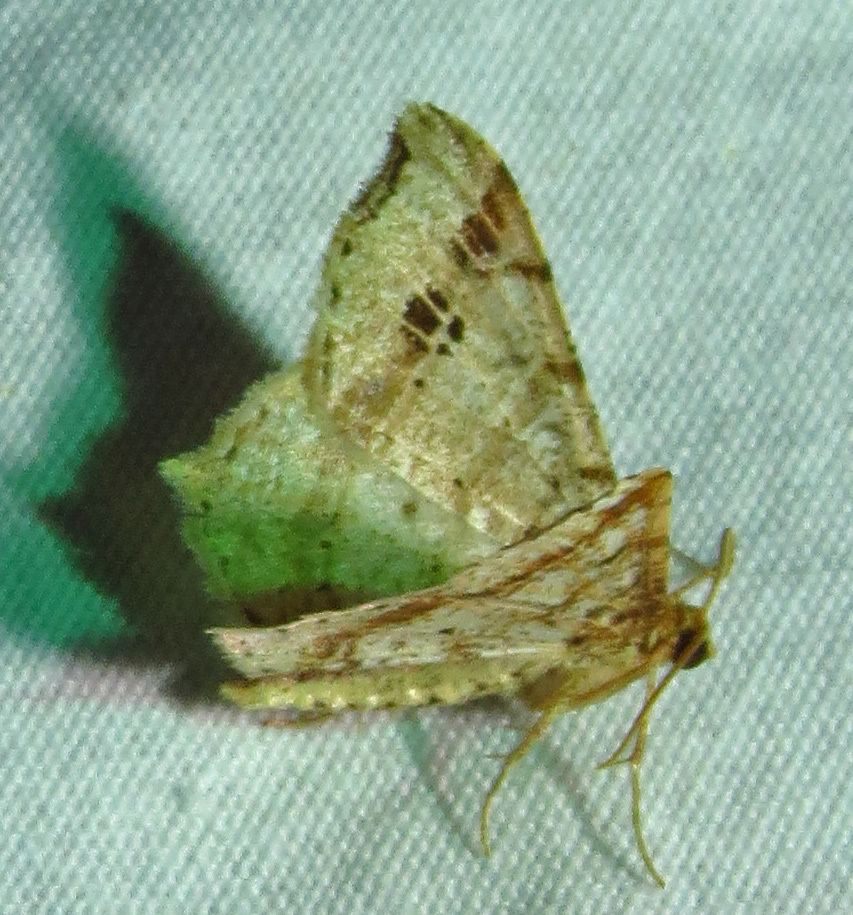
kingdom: Animalia
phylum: Arthropoda
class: Insecta
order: Lepidoptera
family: Geometridae
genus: Macaria
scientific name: Macaria promiscuata
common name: Promiscuous angle
